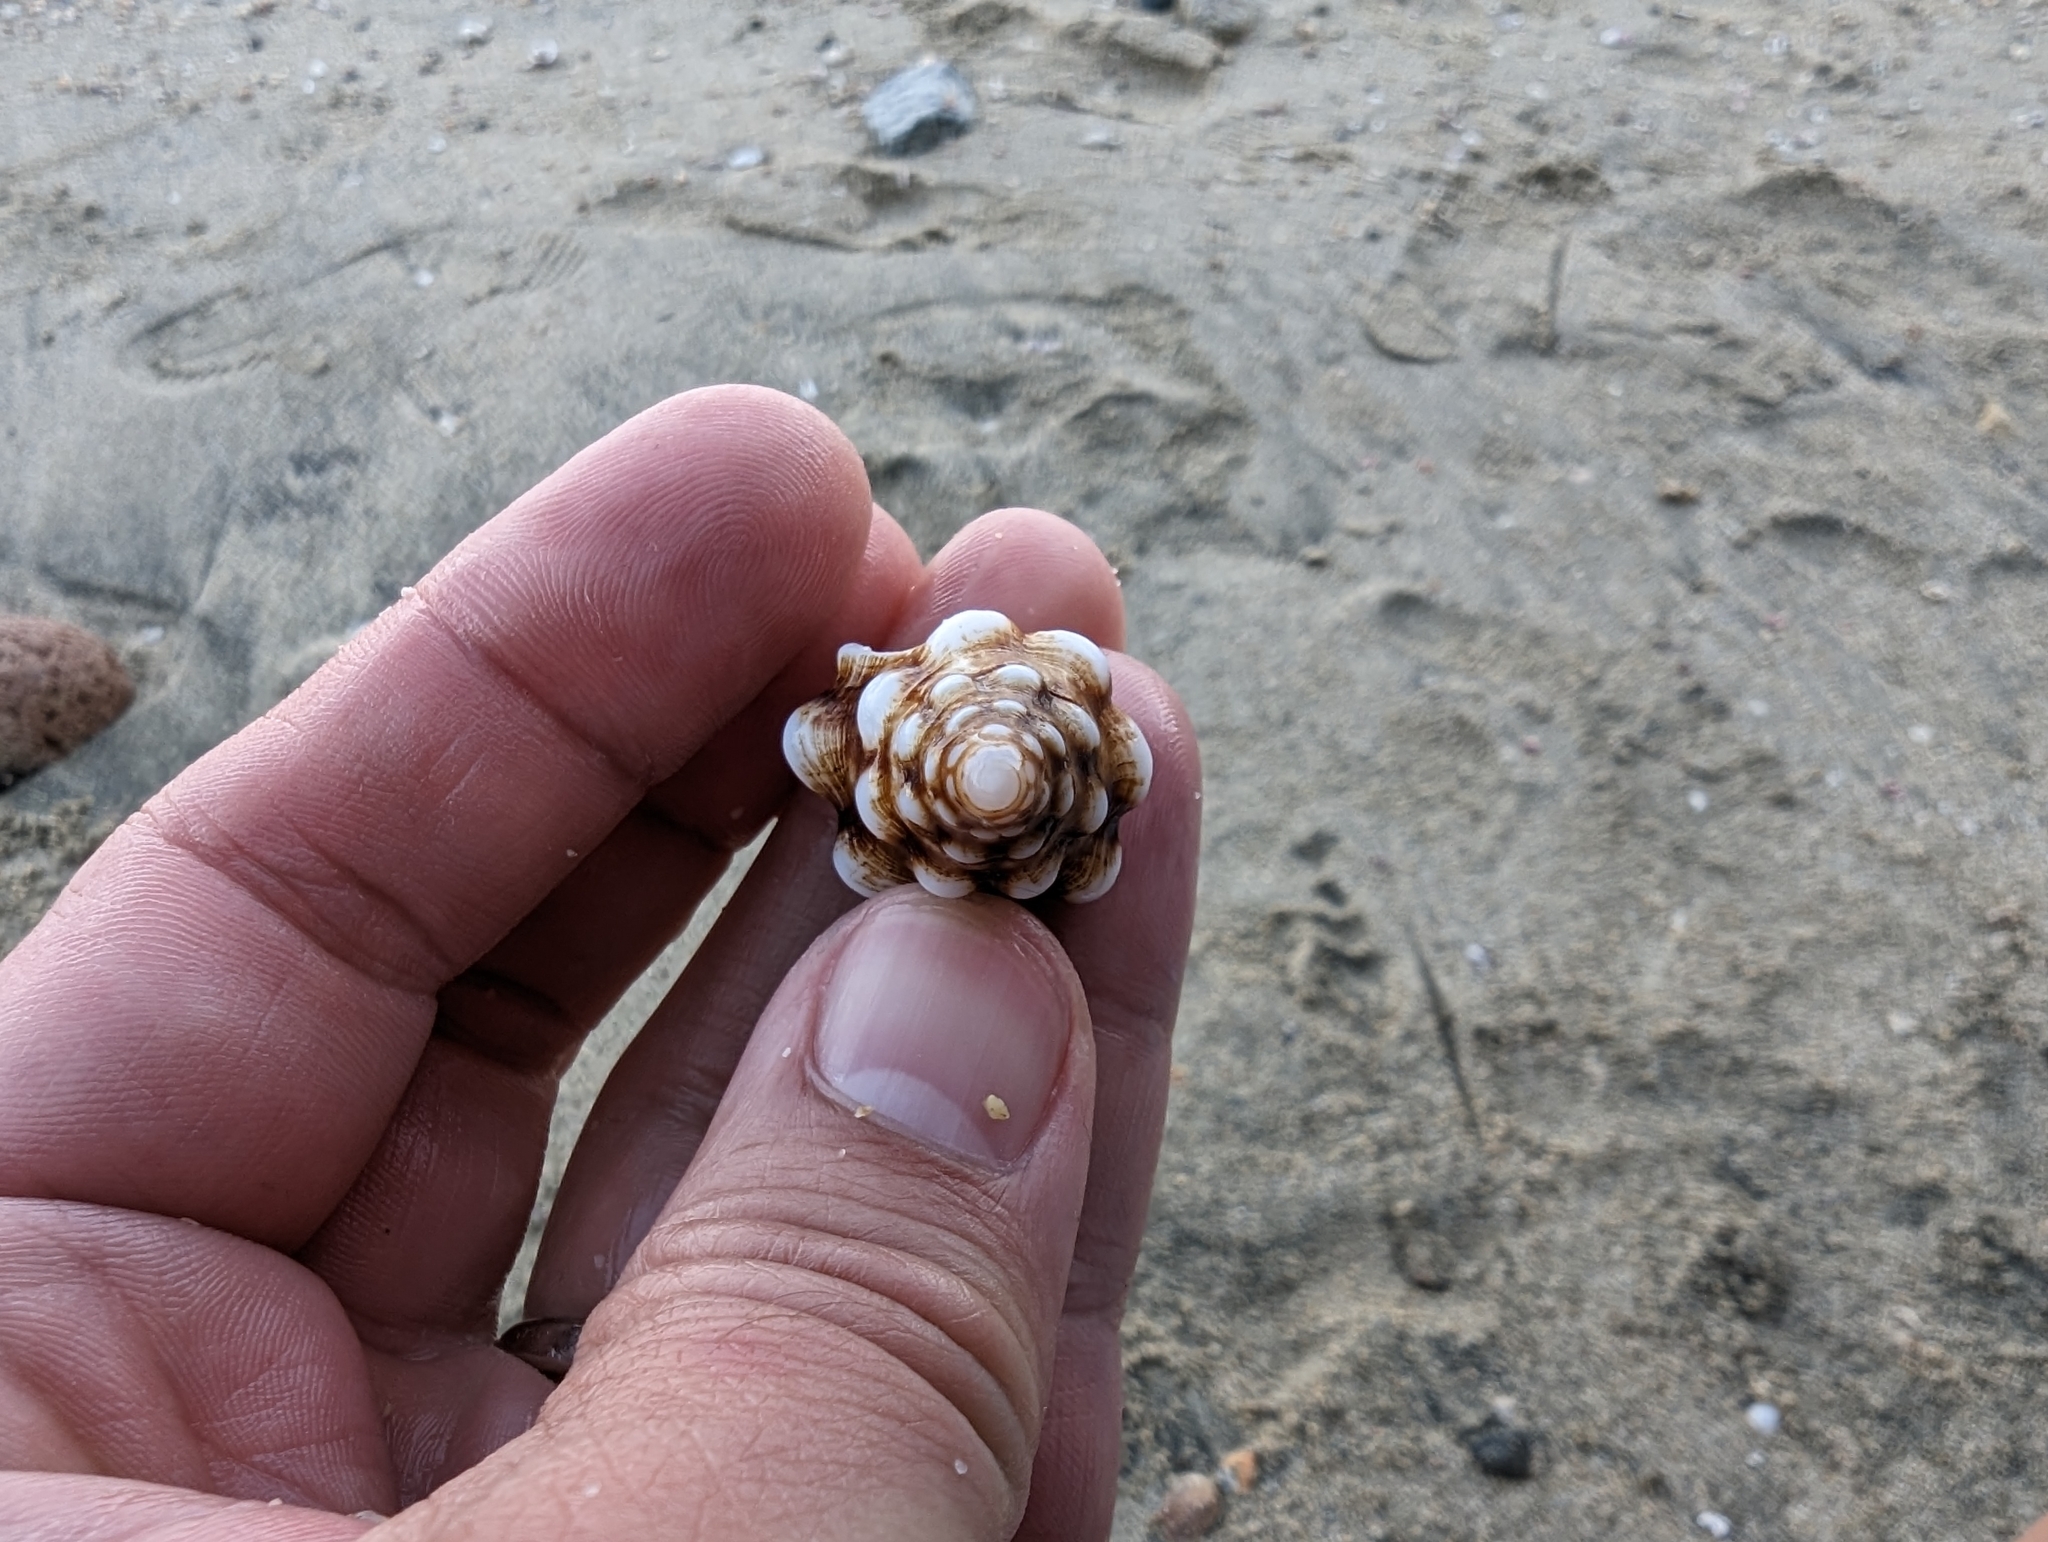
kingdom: Animalia
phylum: Mollusca
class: Gastropoda
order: Neogastropoda
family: Fasciolariidae
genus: Leucozonia
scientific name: Leucozonia cerata
